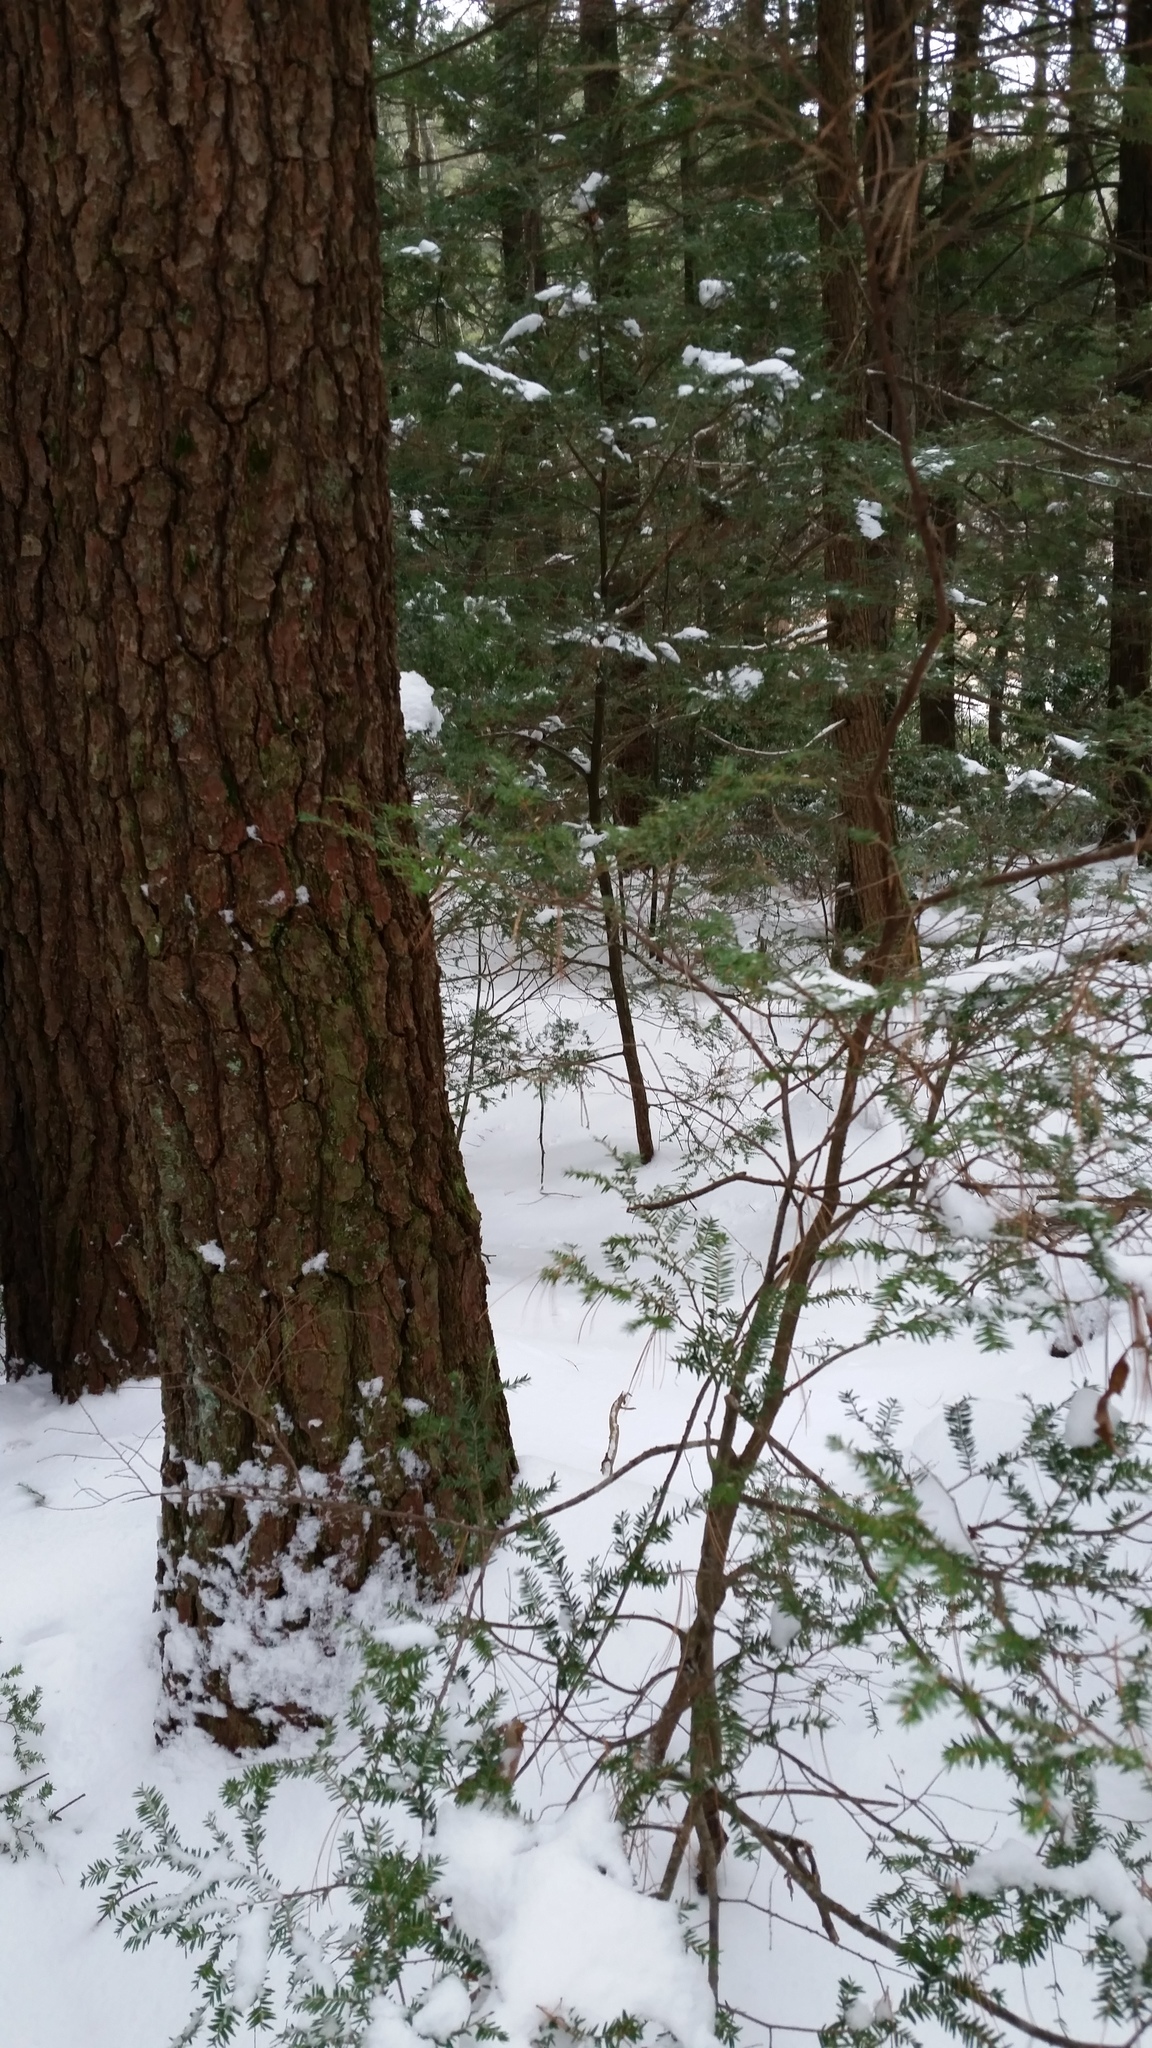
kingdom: Plantae
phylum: Tracheophyta
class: Pinopsida
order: Pinales
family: Pinaceae
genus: Tsuga
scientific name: Tsuga canadensis
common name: Eastern hemlock
